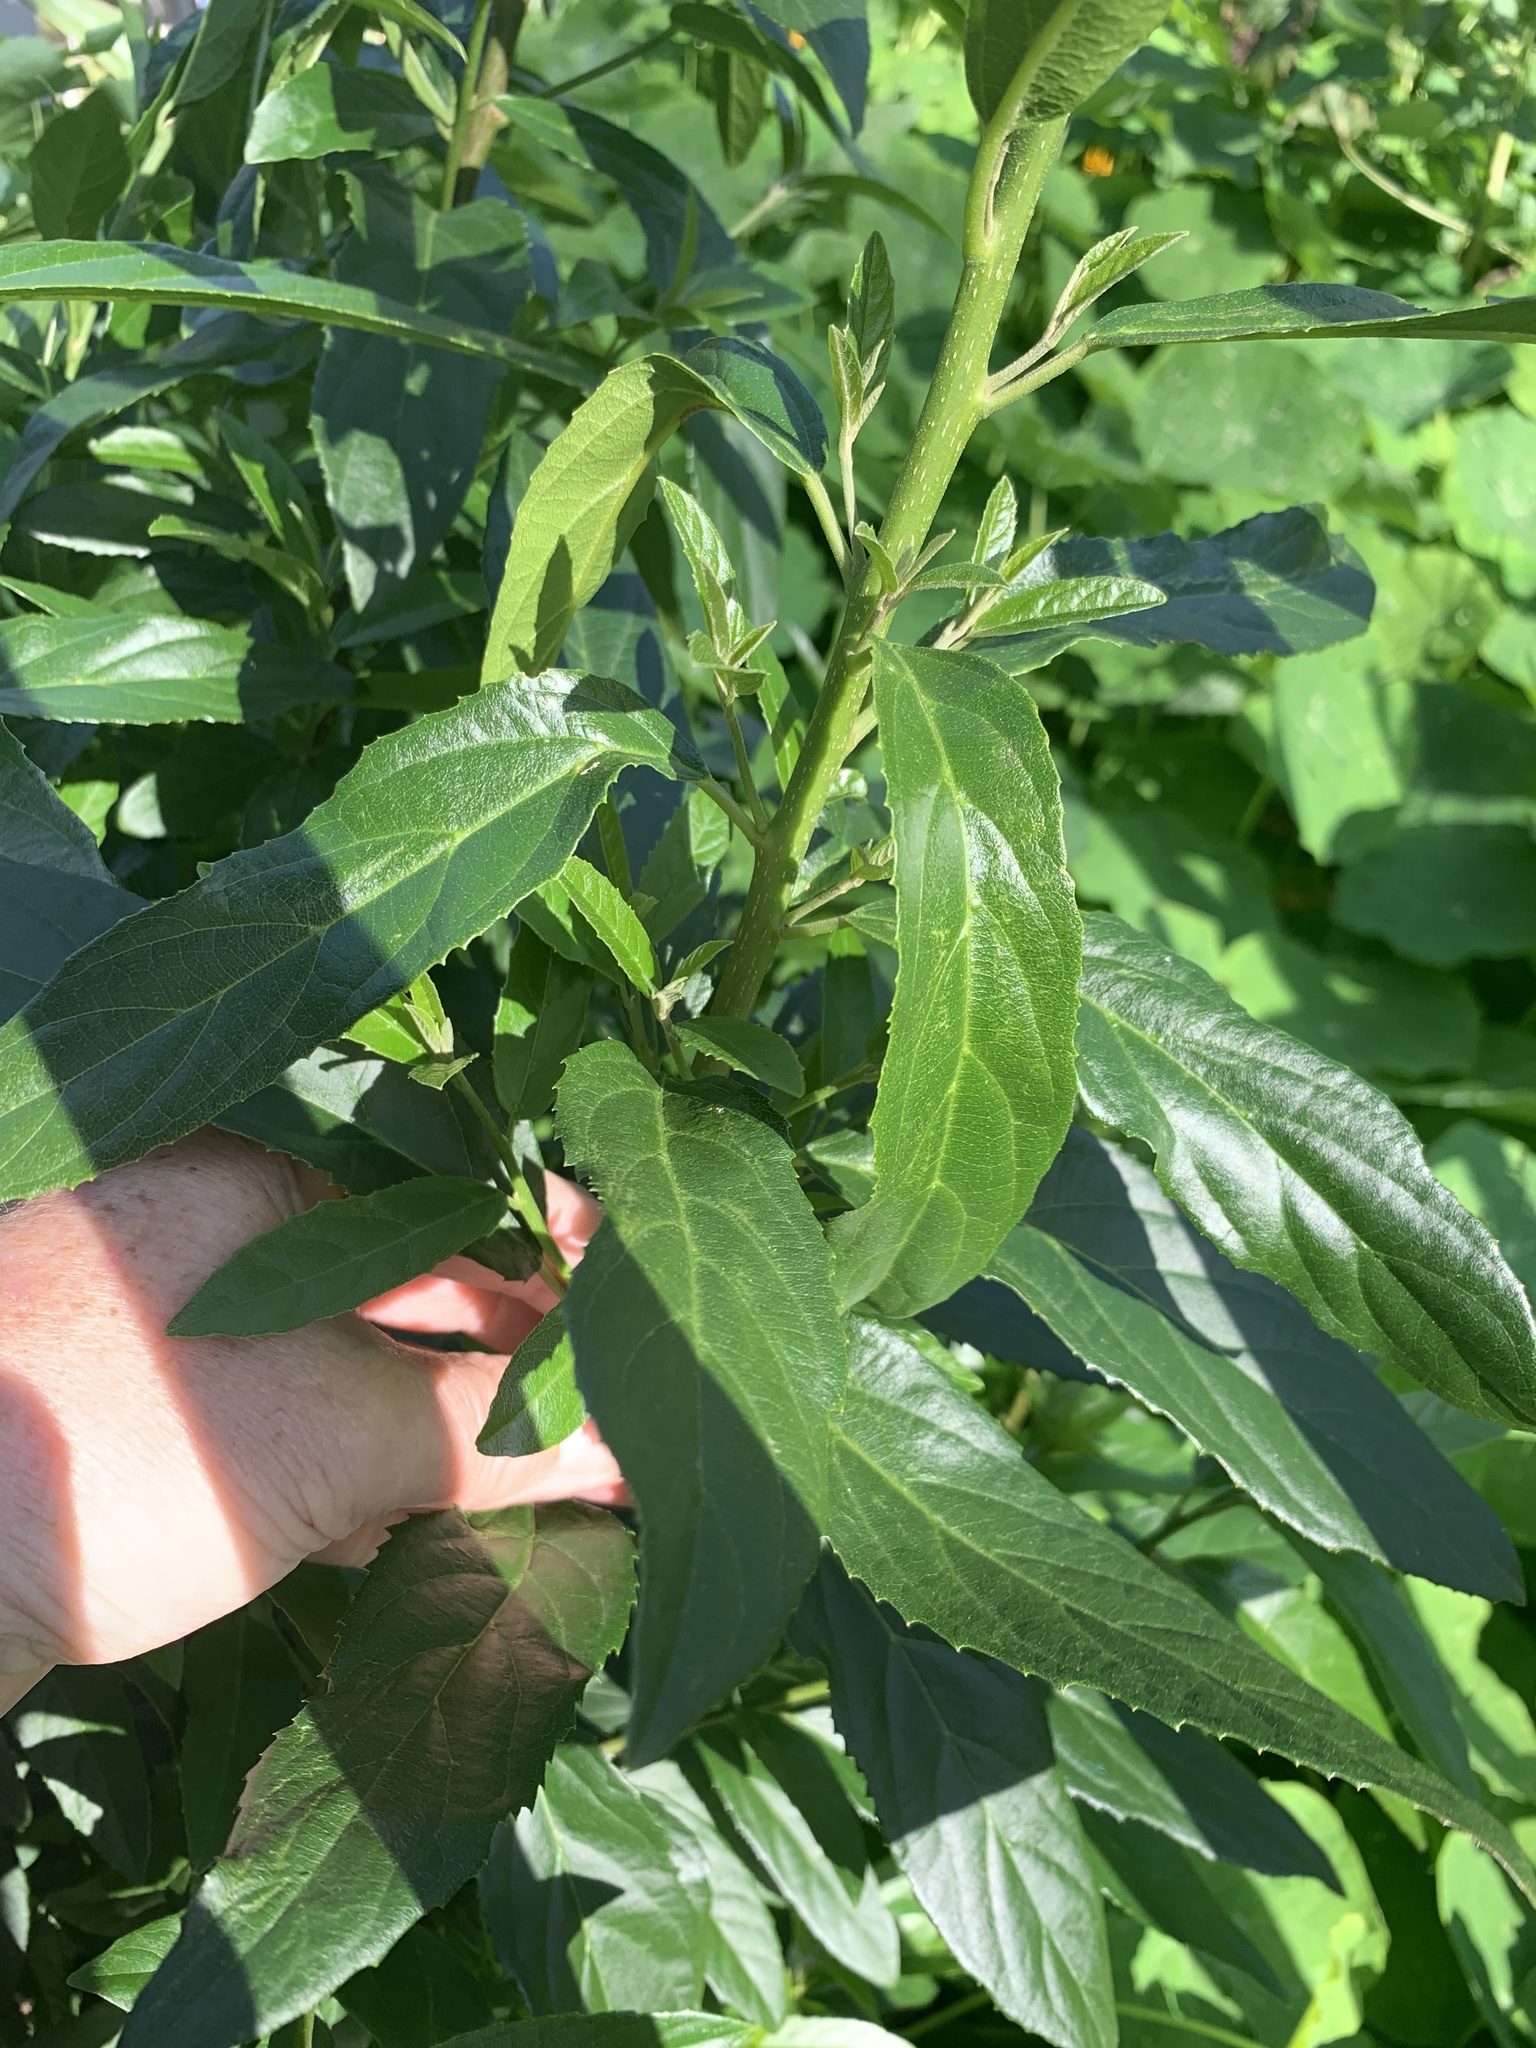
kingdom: Plantae
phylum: Tracheophyta
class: Magnoliopsida
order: Malpighiales
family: Achariaceae
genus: Kiggelaria
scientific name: Kiggelaria africana
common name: Wild peach
